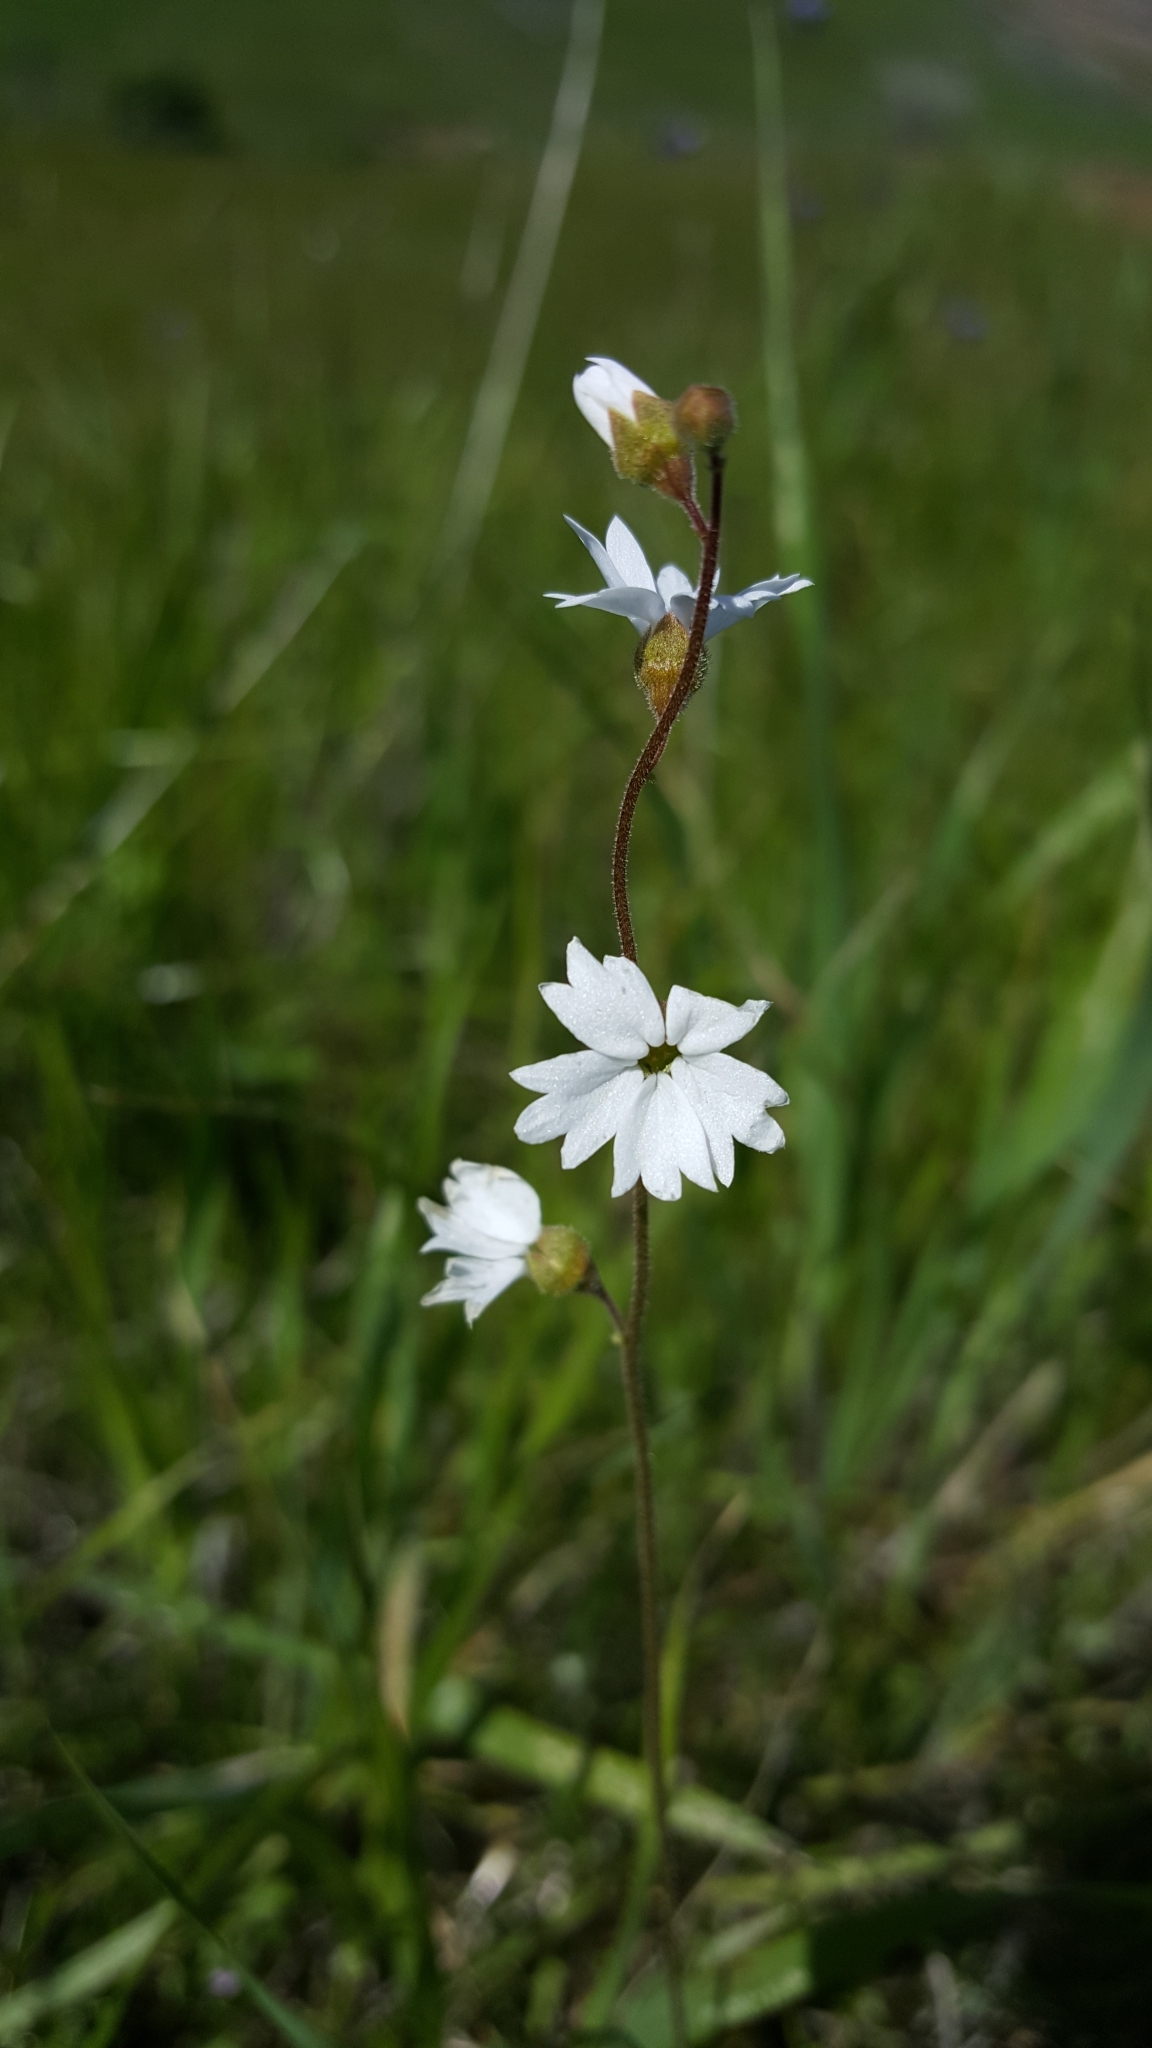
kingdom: Plantae
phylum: Tracheophyta
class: Magnoliopsida
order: Saxifragales
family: Saxifragaceae
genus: Lithophragma
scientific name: Lithophragma affine
